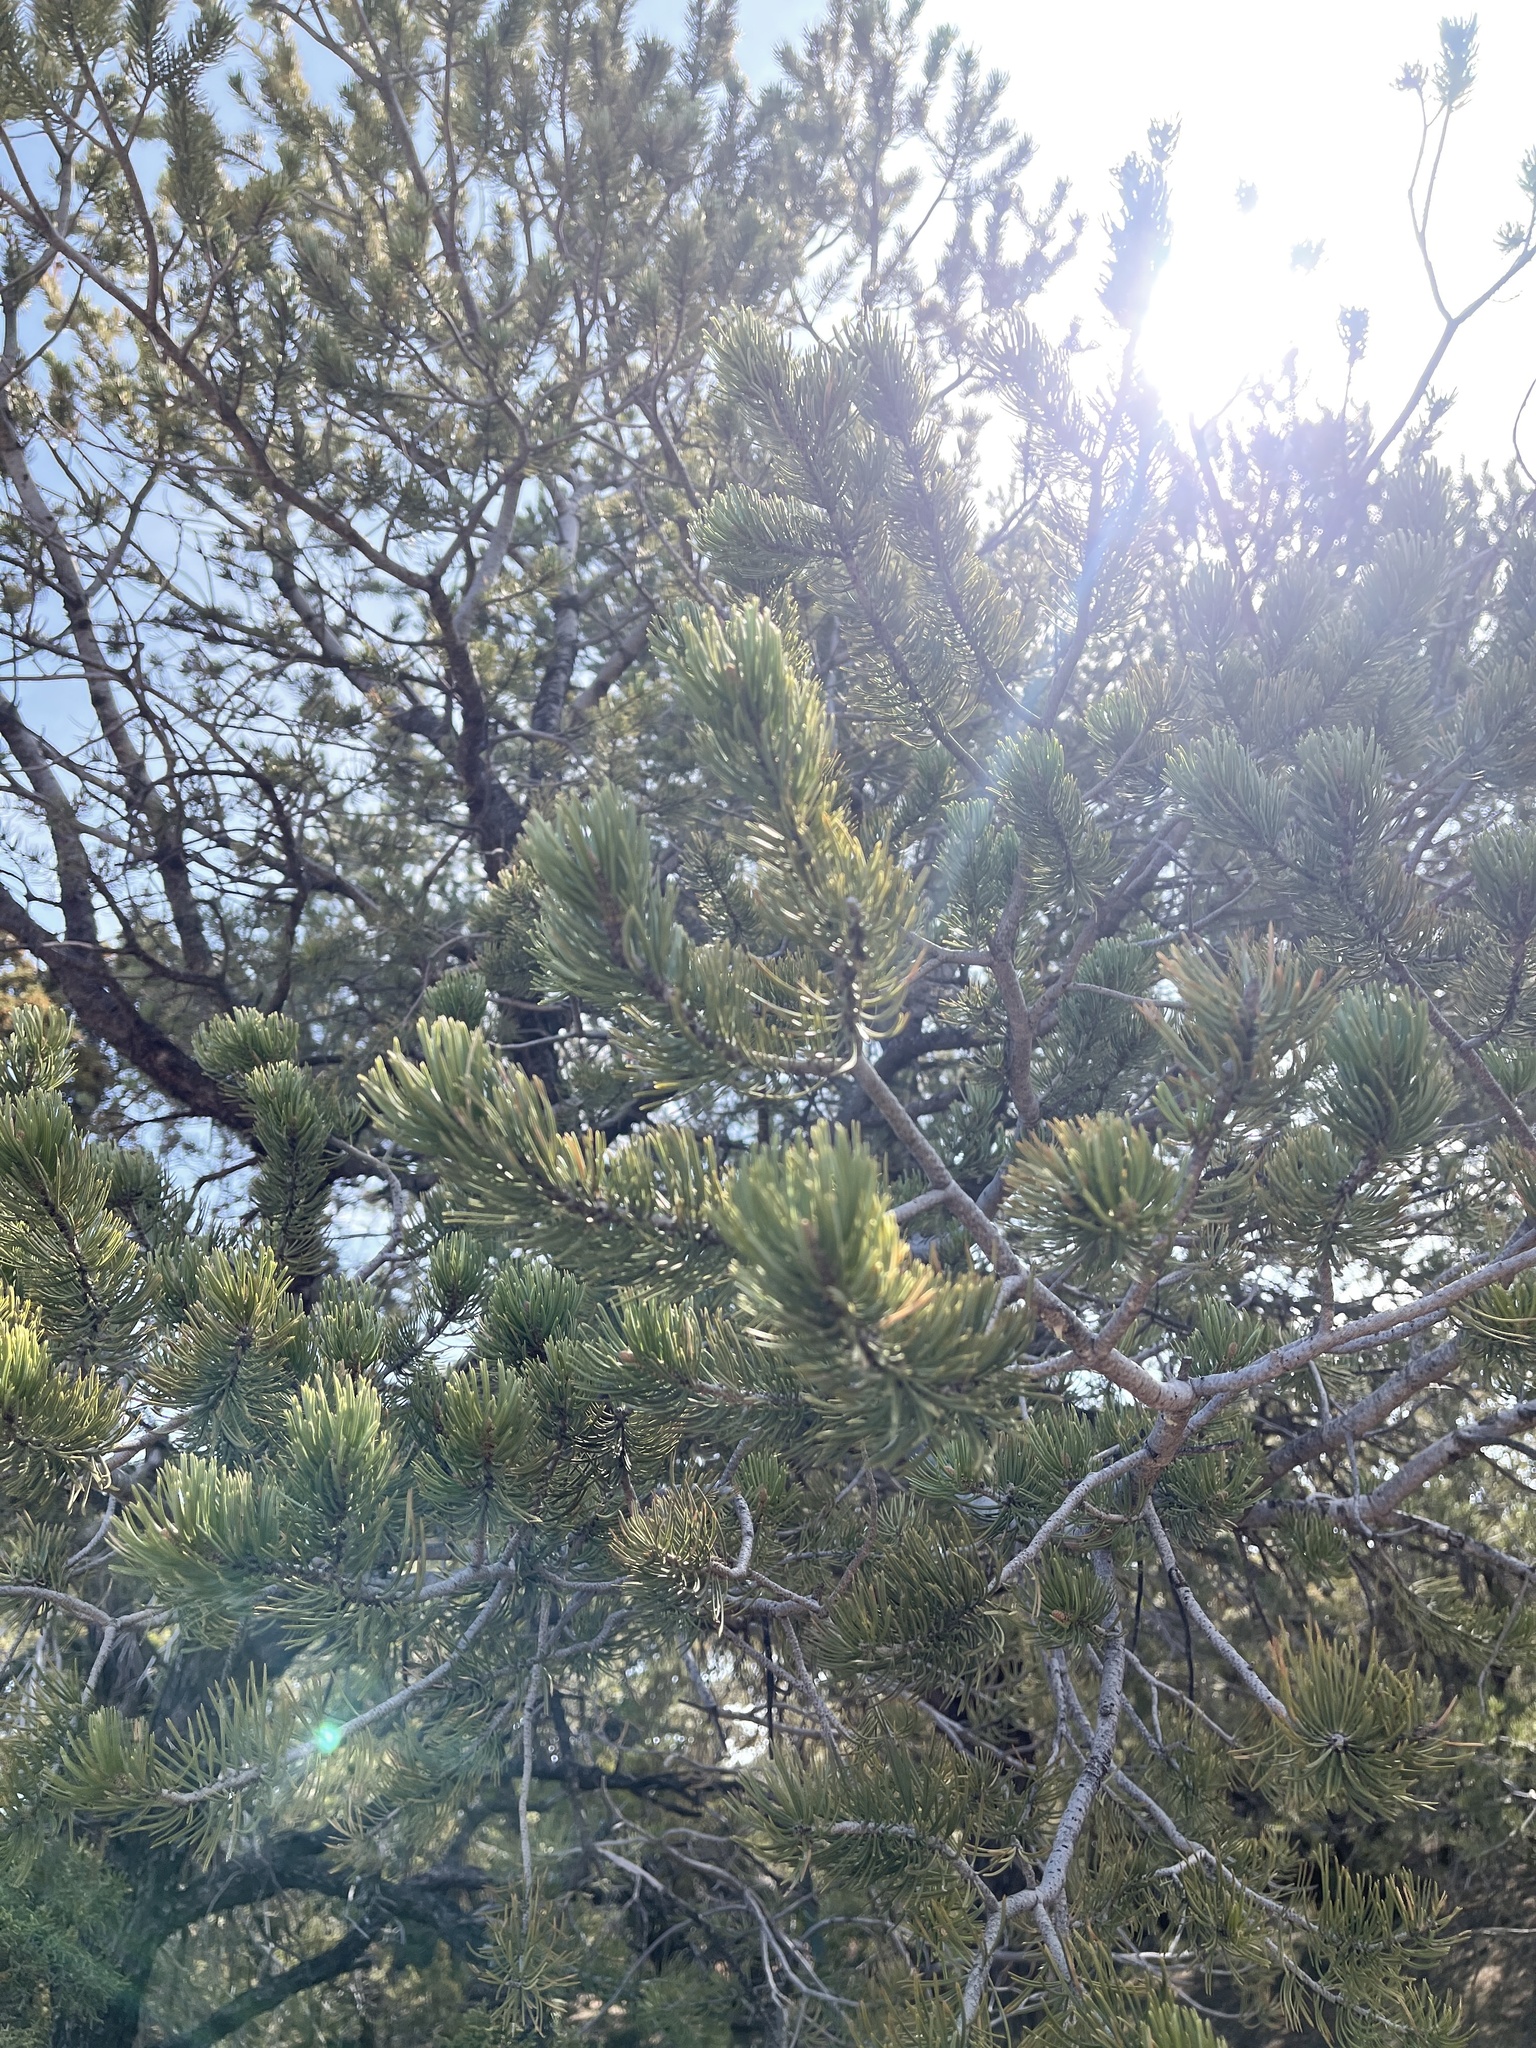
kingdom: Plantae
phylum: Tracheophyta
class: Pinopsida
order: Pinales
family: Pinaceae
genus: Pinus
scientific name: Pinus edulis
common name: Colorado pinyon
